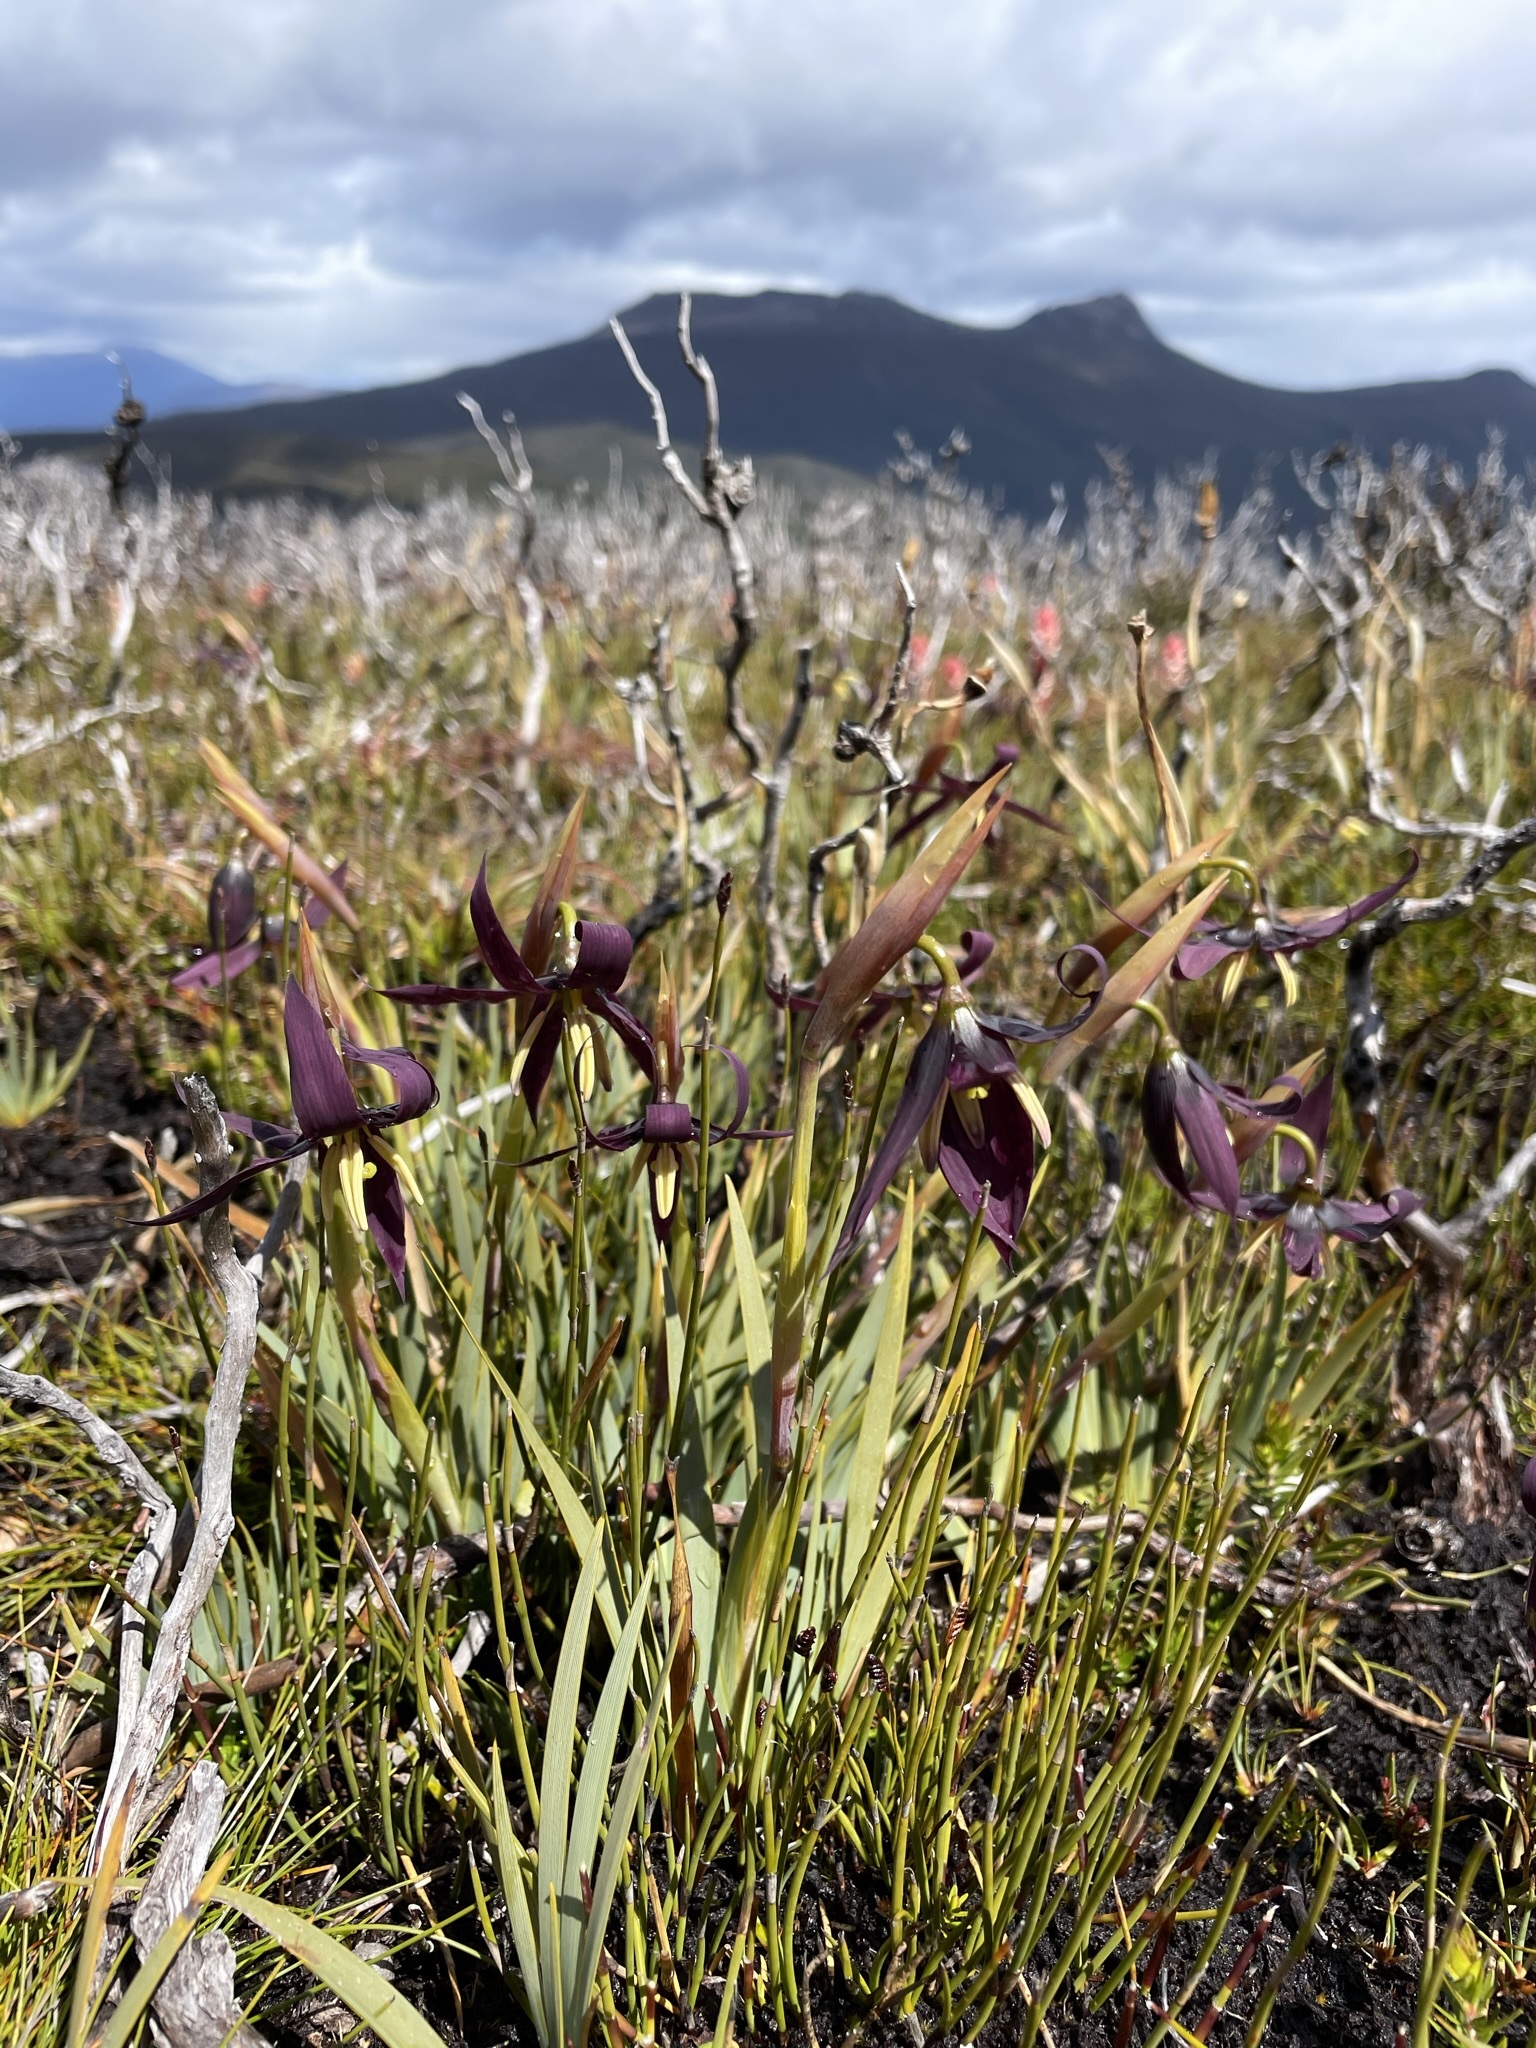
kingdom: Plantae
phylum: Tracheophyta
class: Liliopsida
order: Asparagales
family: Iridaceae
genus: Isophysis
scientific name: Isophysis tasmanica
